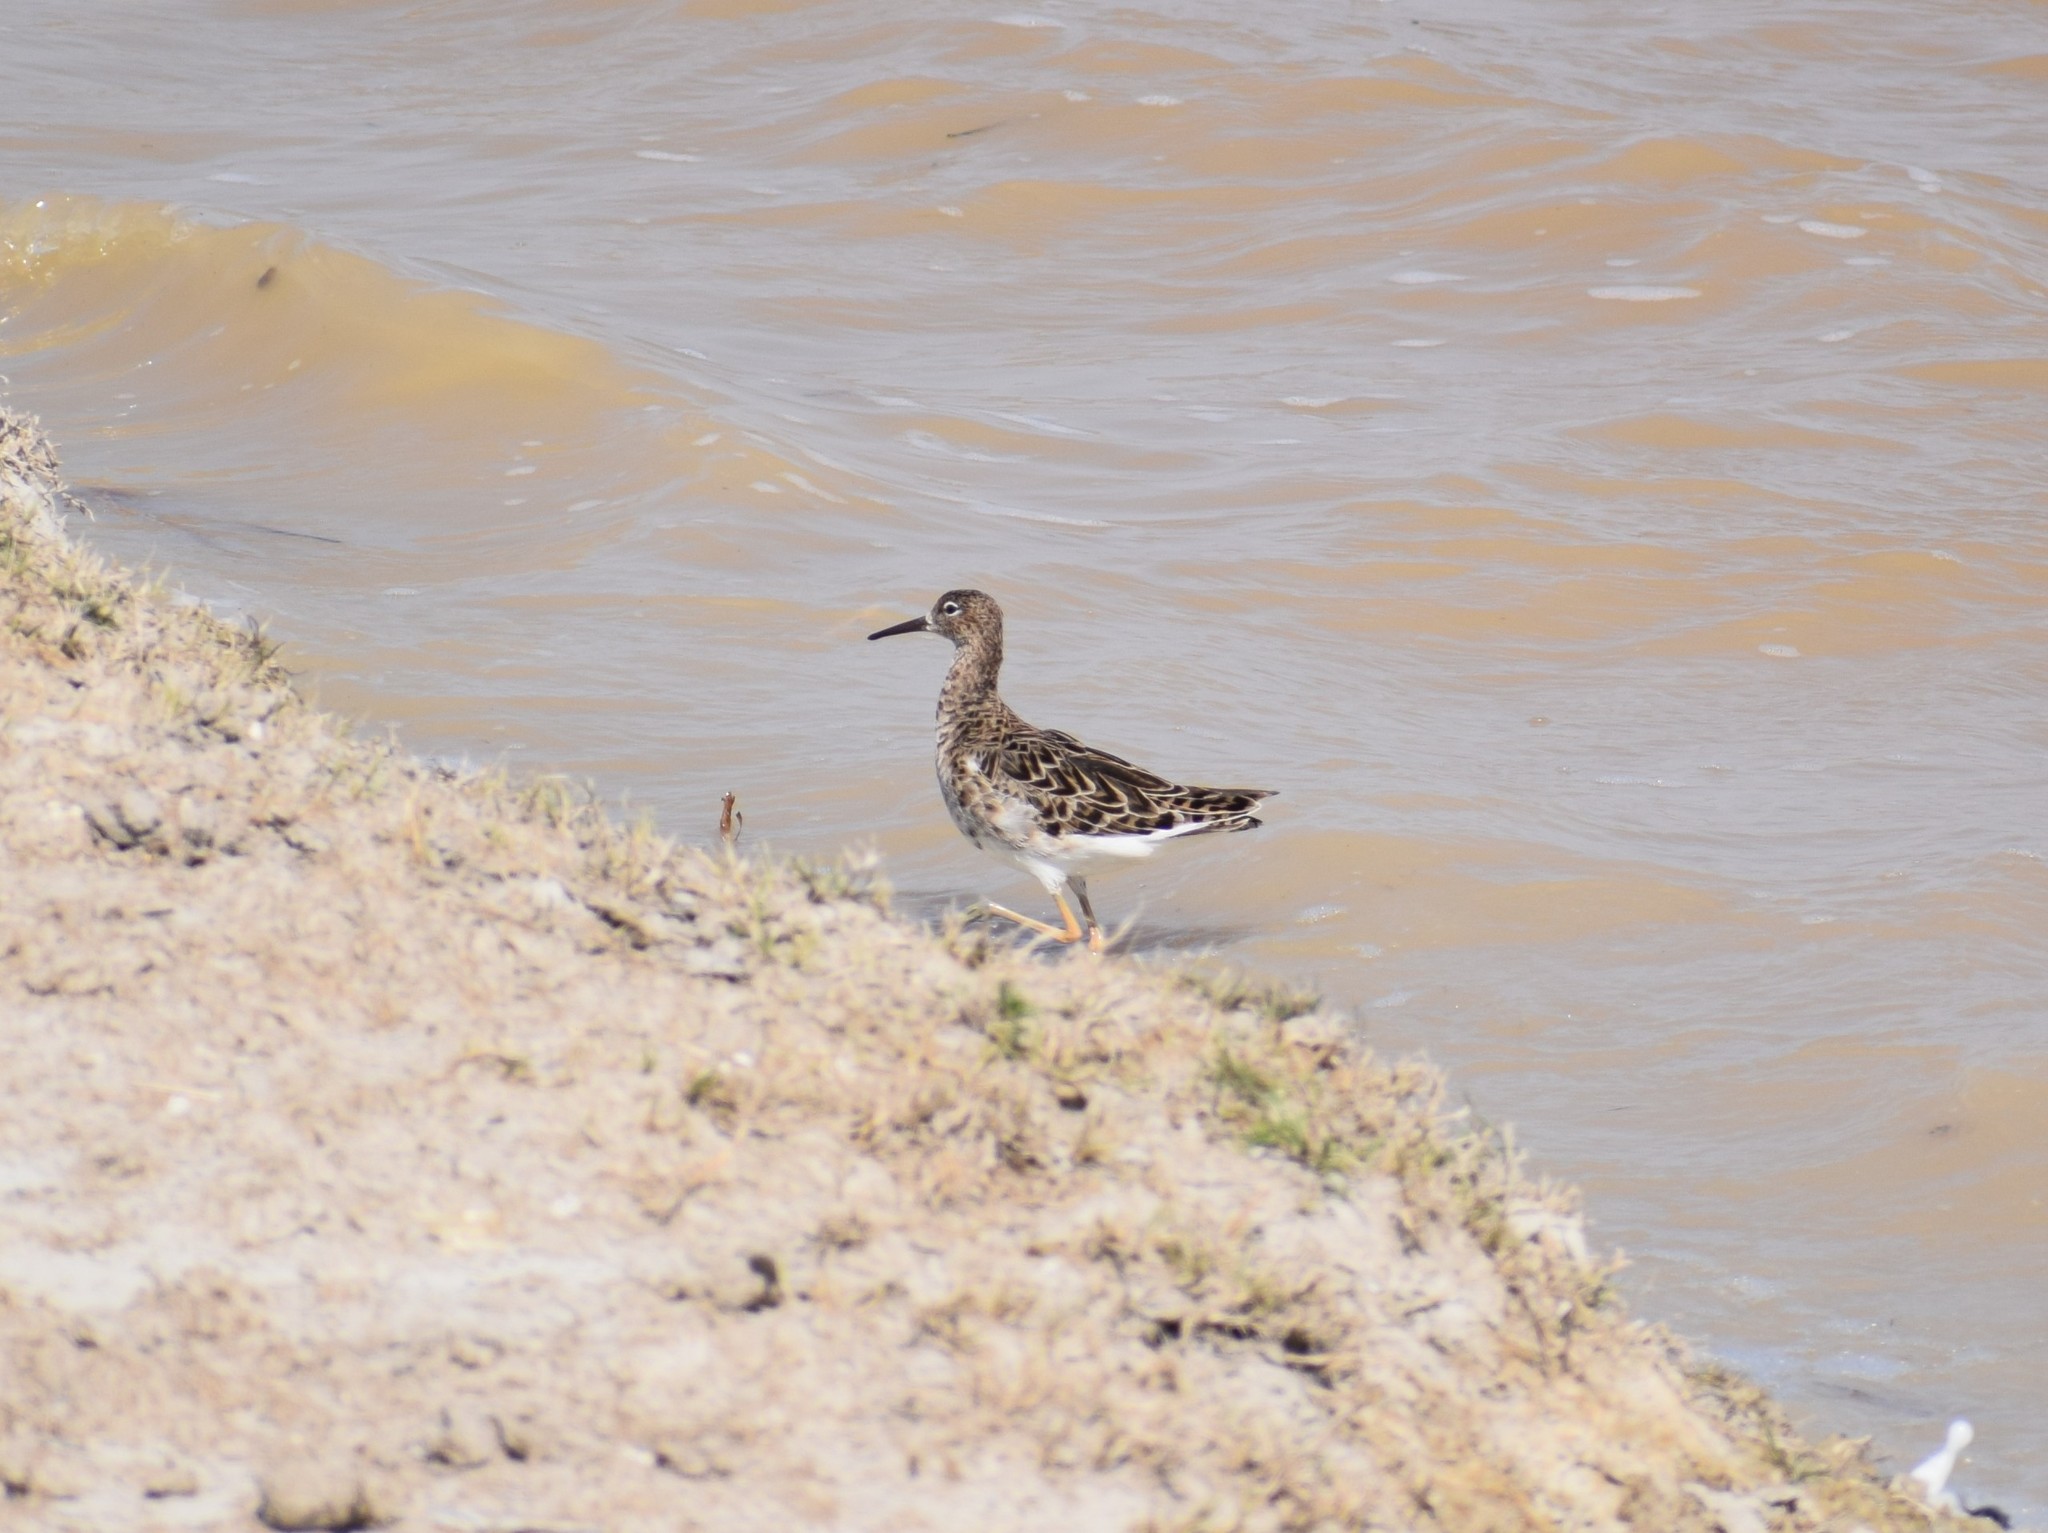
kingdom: Animalia
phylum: Chordata
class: Aves
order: Charadriiformes
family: Scolopacidae
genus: Calidris
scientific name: Calidris pugnax
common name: Ruff
